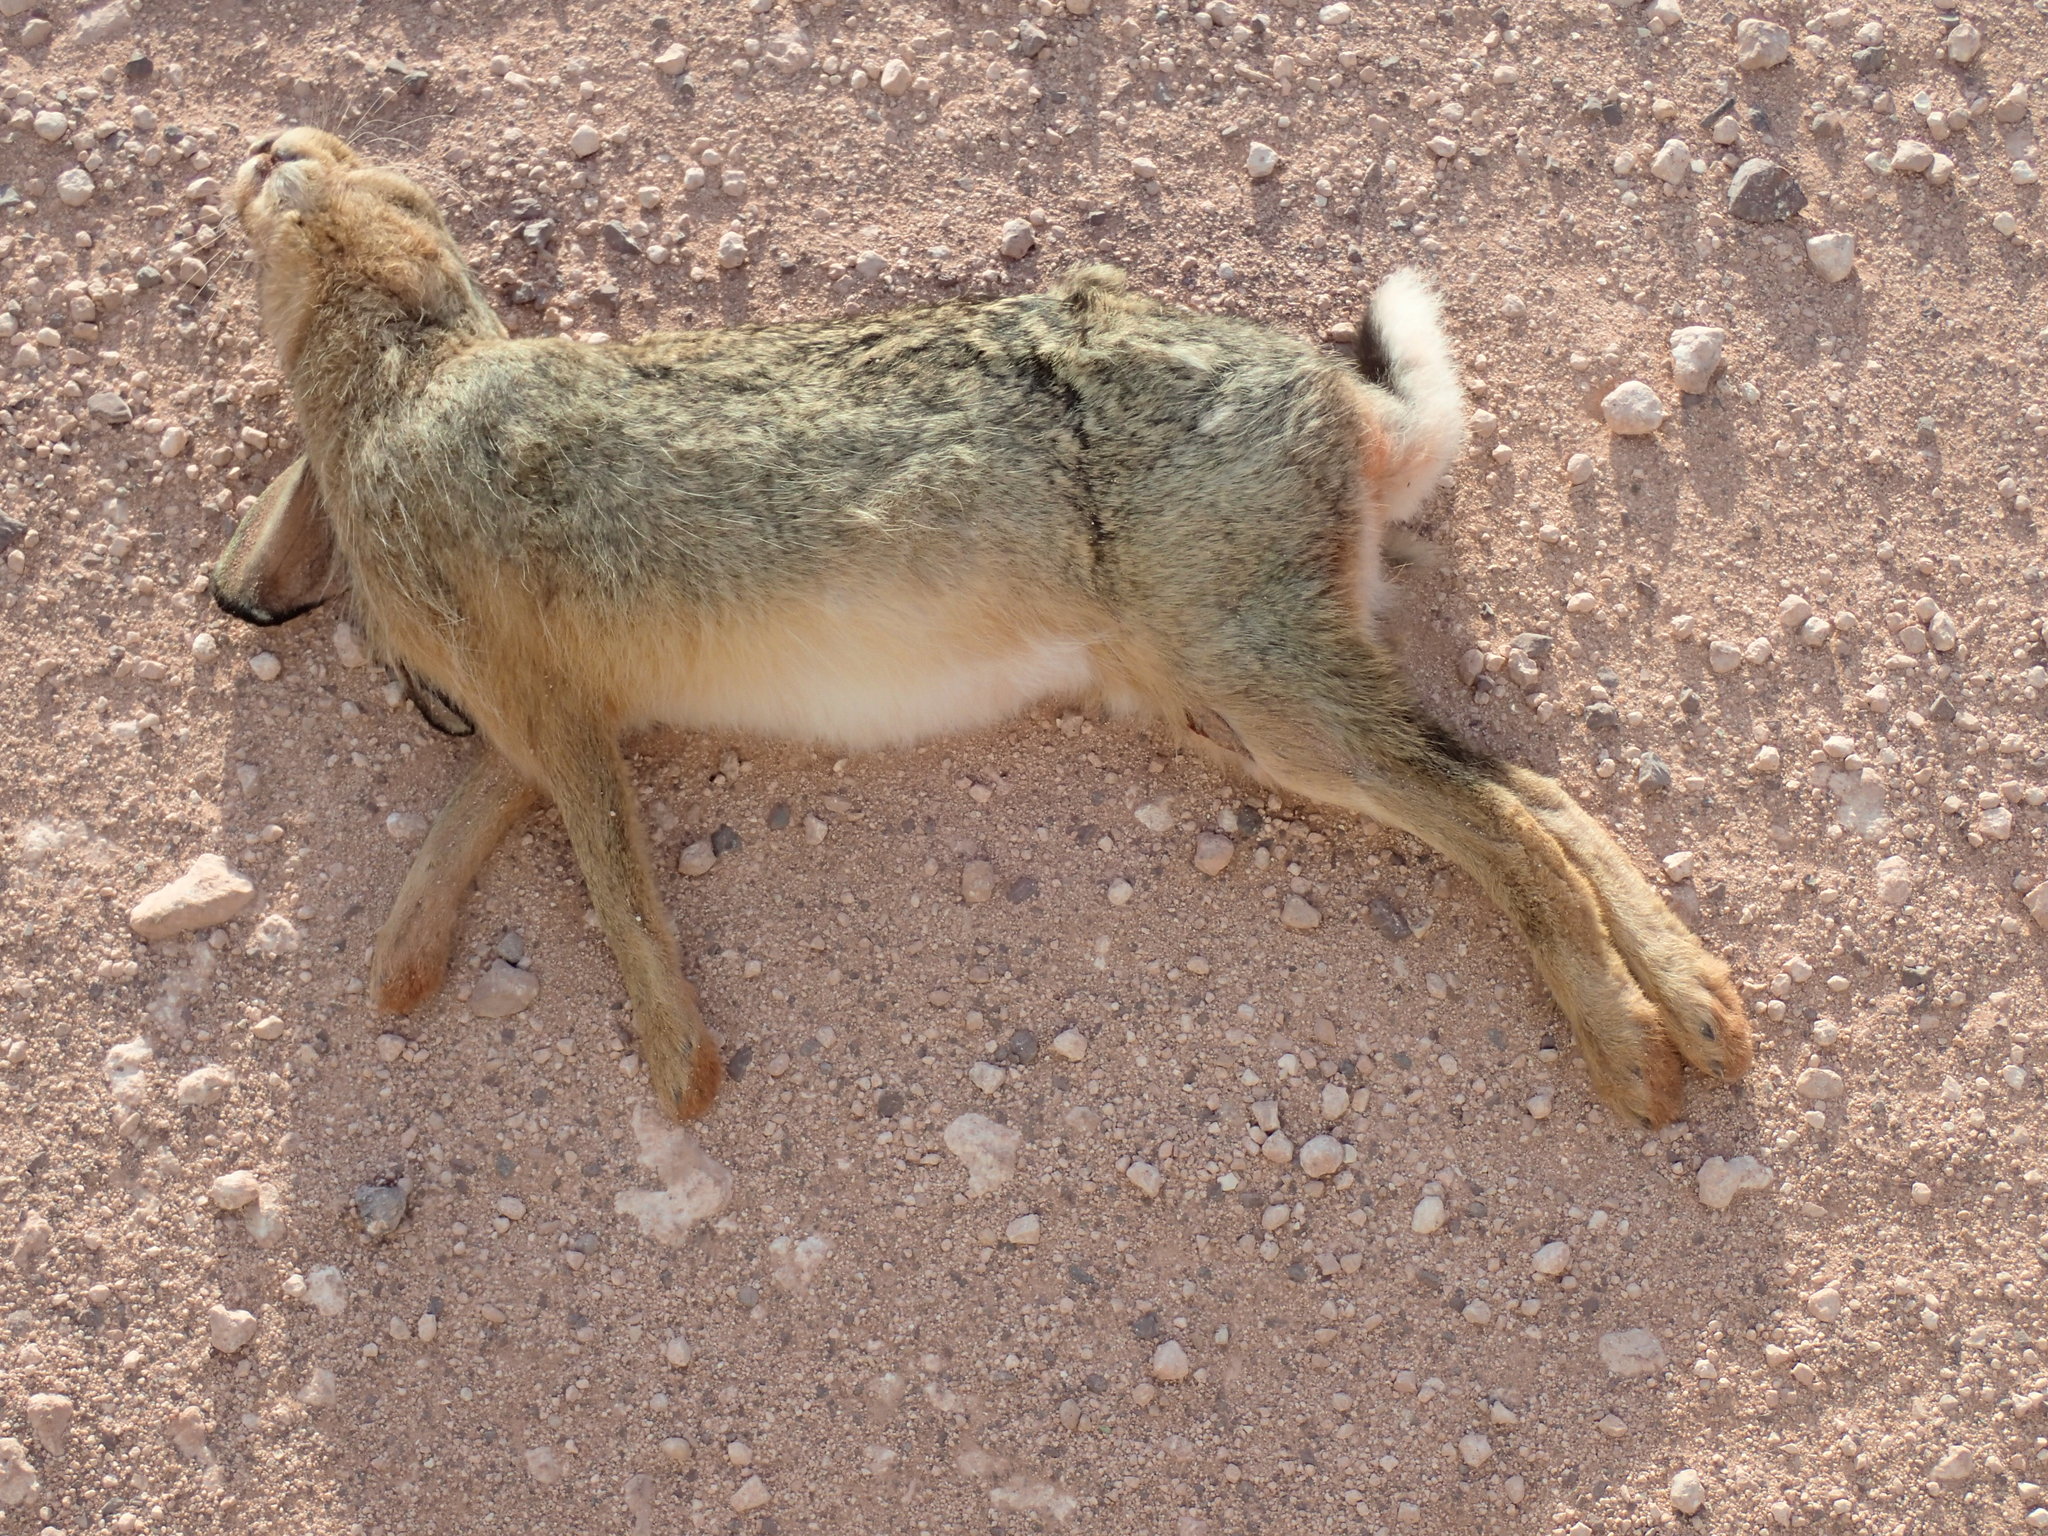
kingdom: Animalia
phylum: Chordata
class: Mammalia
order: Lagomorpha
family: Leporidae
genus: Lepus
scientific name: Lepus saxatilis
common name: Scrub hare
